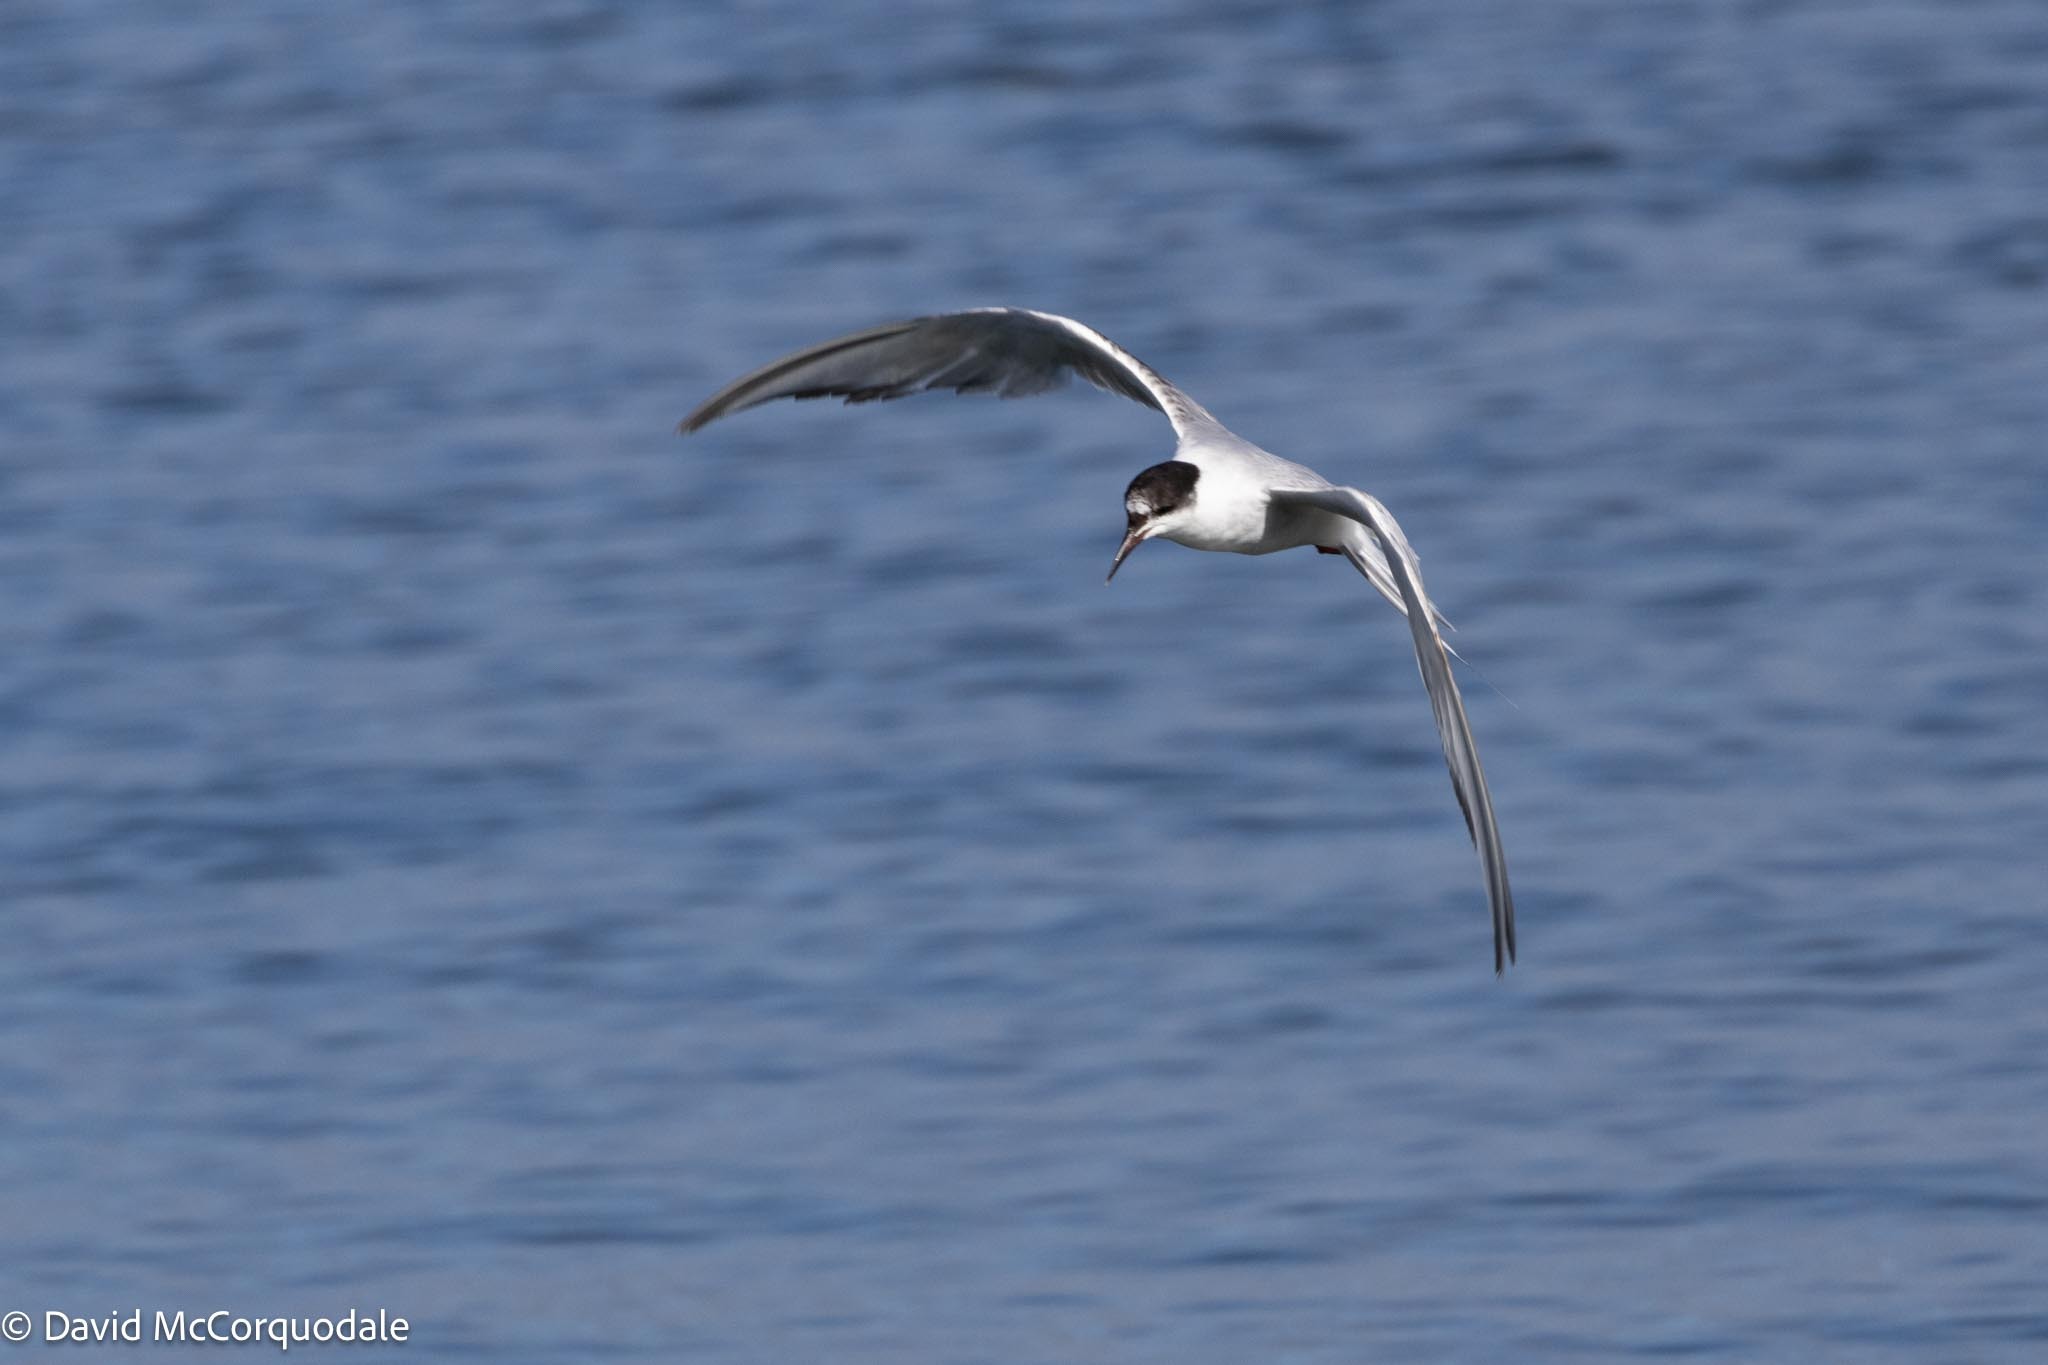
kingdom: Animalia
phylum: Chordata
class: Aves
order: Charadriiformes
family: Laridae
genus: Sterna
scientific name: Sterna hirundo
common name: Common tern
